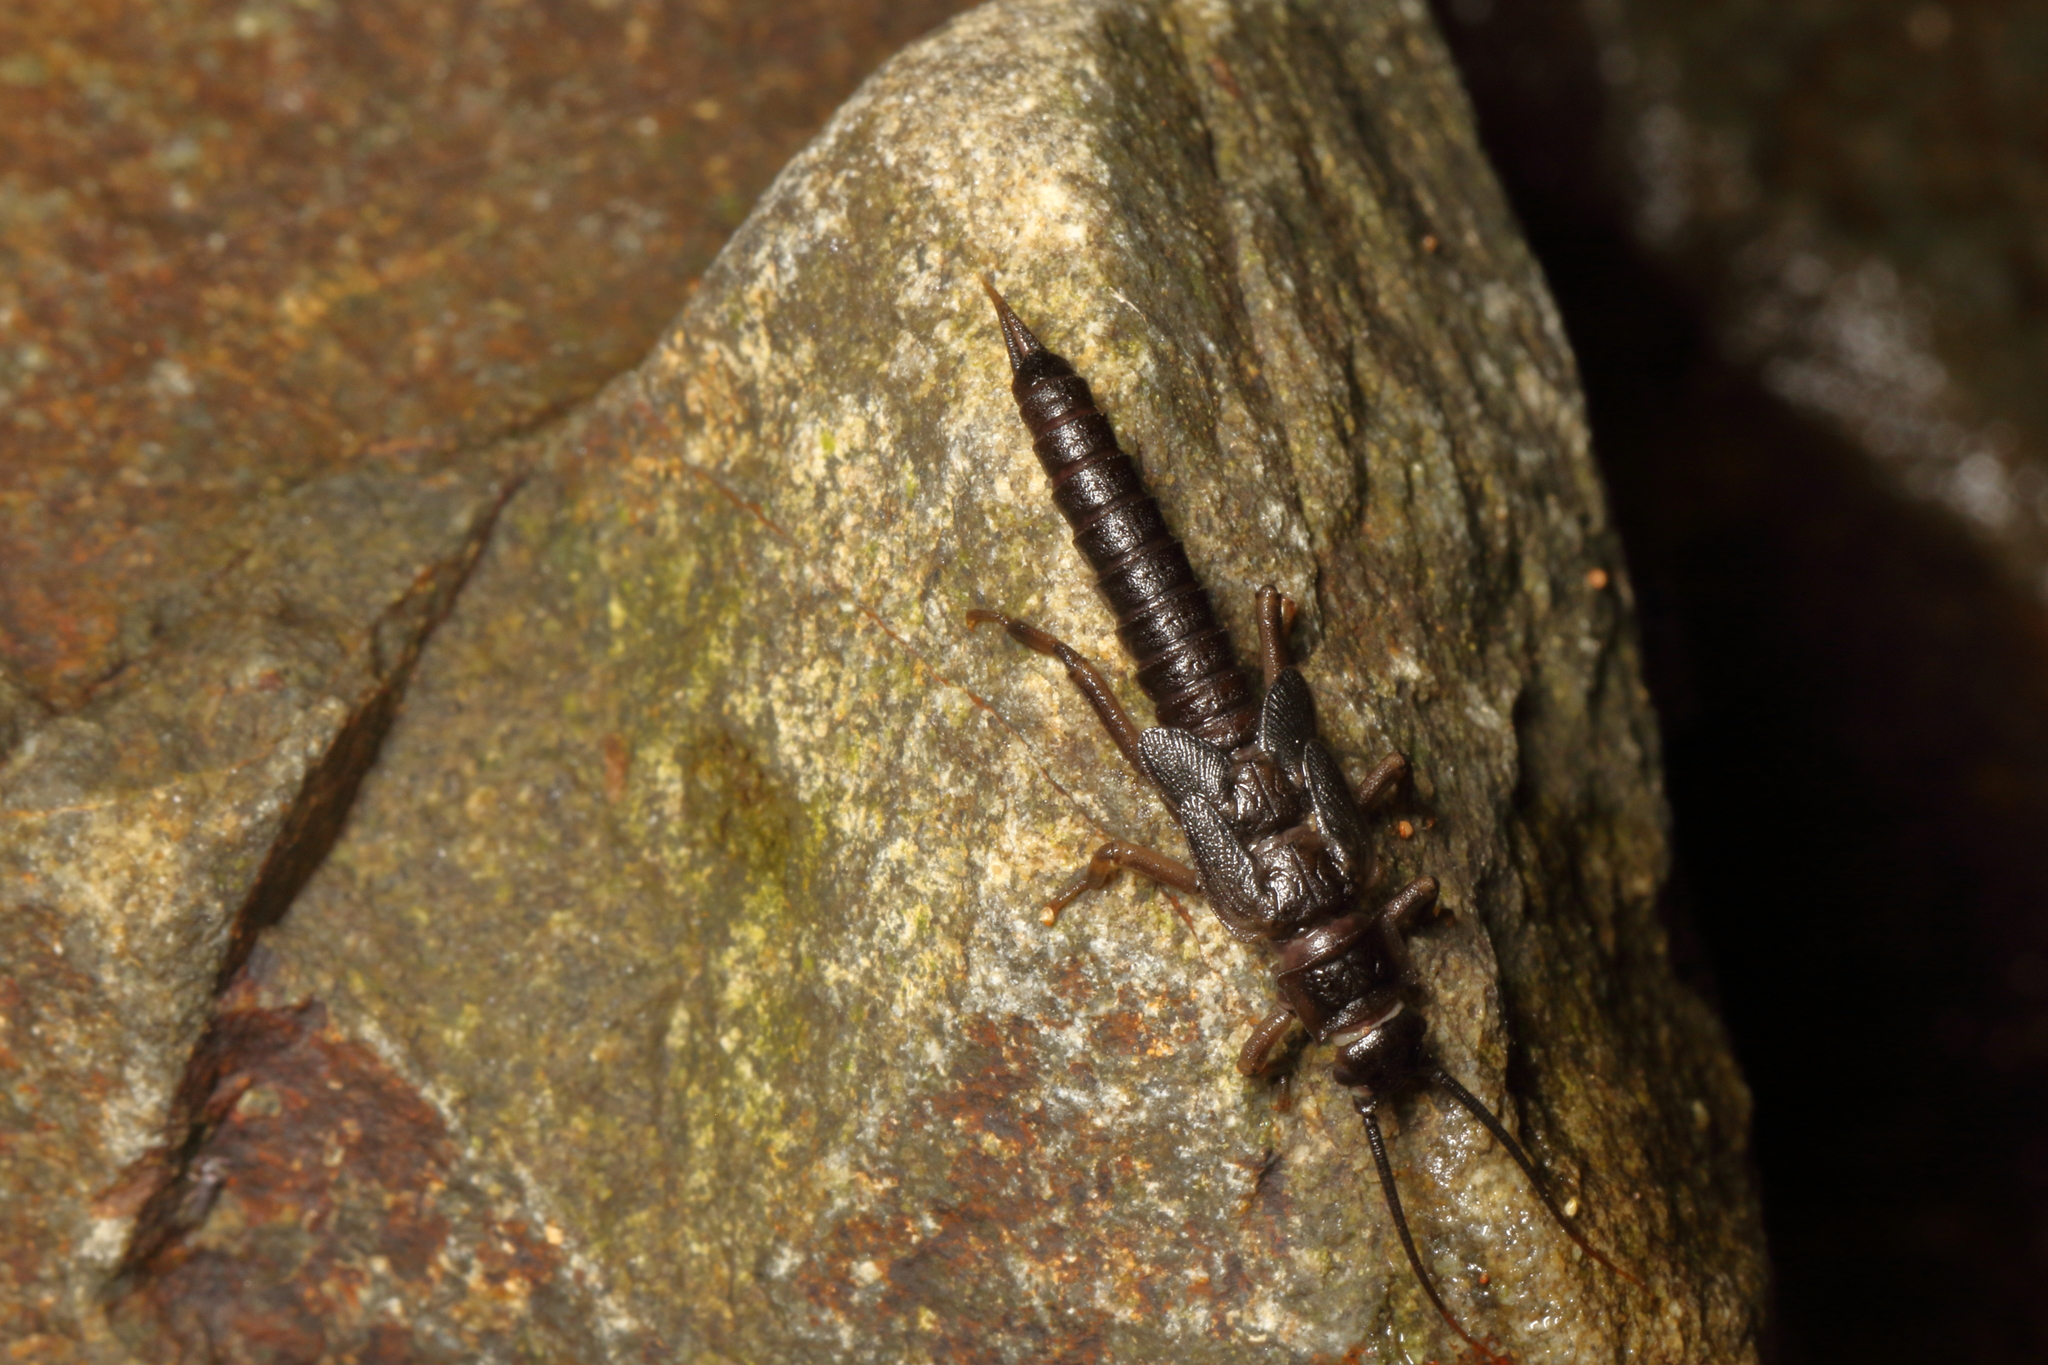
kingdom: Animalia
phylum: Arthropoda
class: Insecta
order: Plecoptera
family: Austroperlidae
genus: Austroperla
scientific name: Austroperla cyrene
